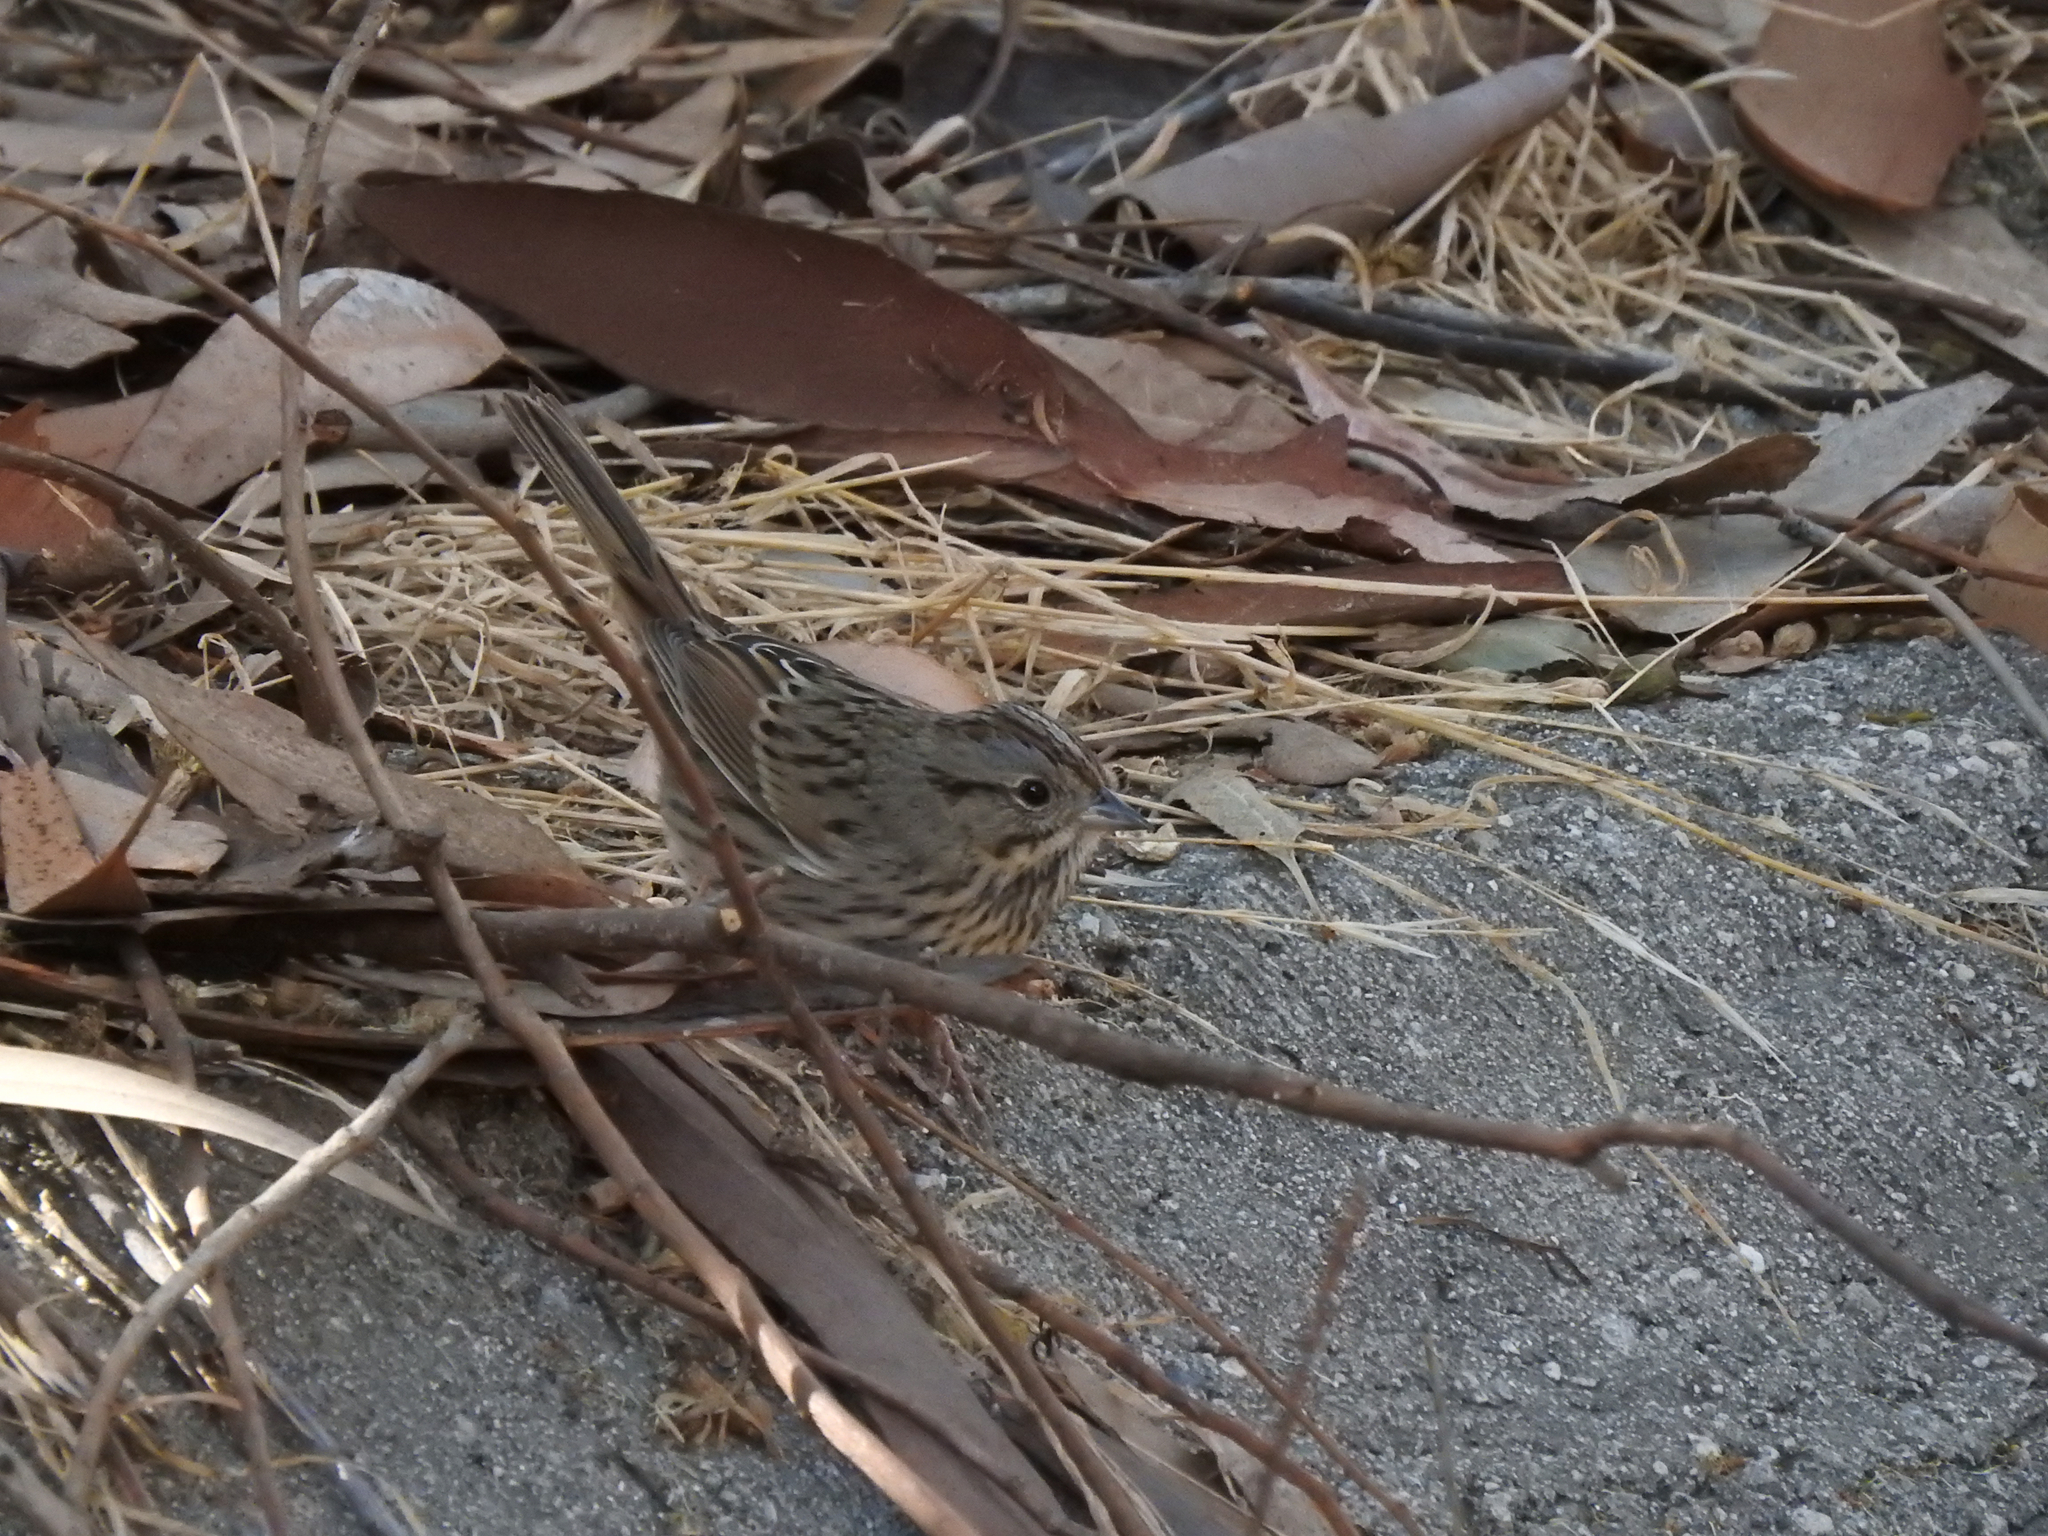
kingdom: Animalia
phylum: Chordata
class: Aves
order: Passeriformes
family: Passerellidae
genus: Melospiza
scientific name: Melospiza lincolnii
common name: Lincoln's sparrow
